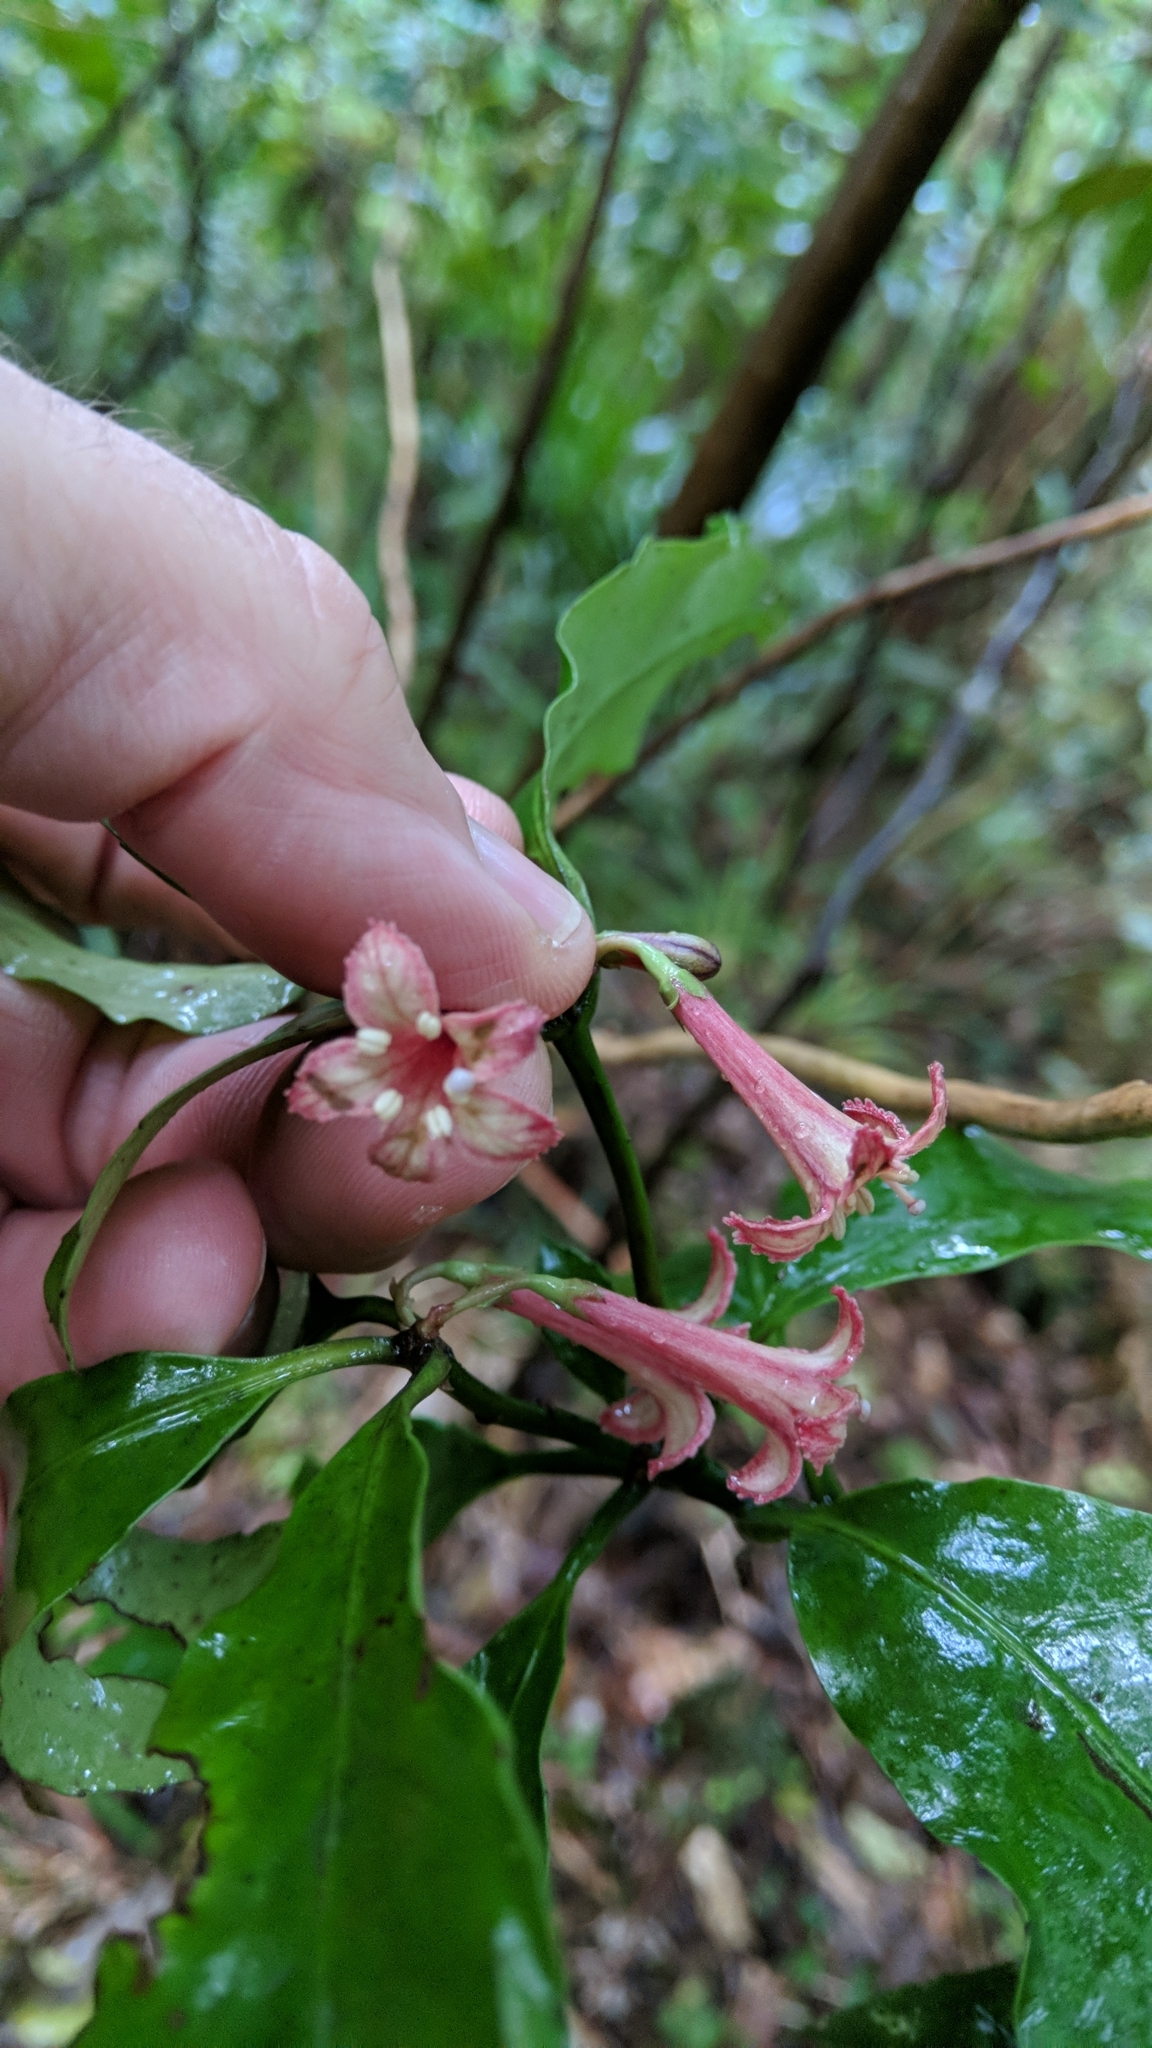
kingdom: Plantae
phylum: Tracheophyta
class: Magnoliopsida
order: Asterales
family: Alseuosmiaceae
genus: Alseuosmia
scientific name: Alseuosmia macrophylla
